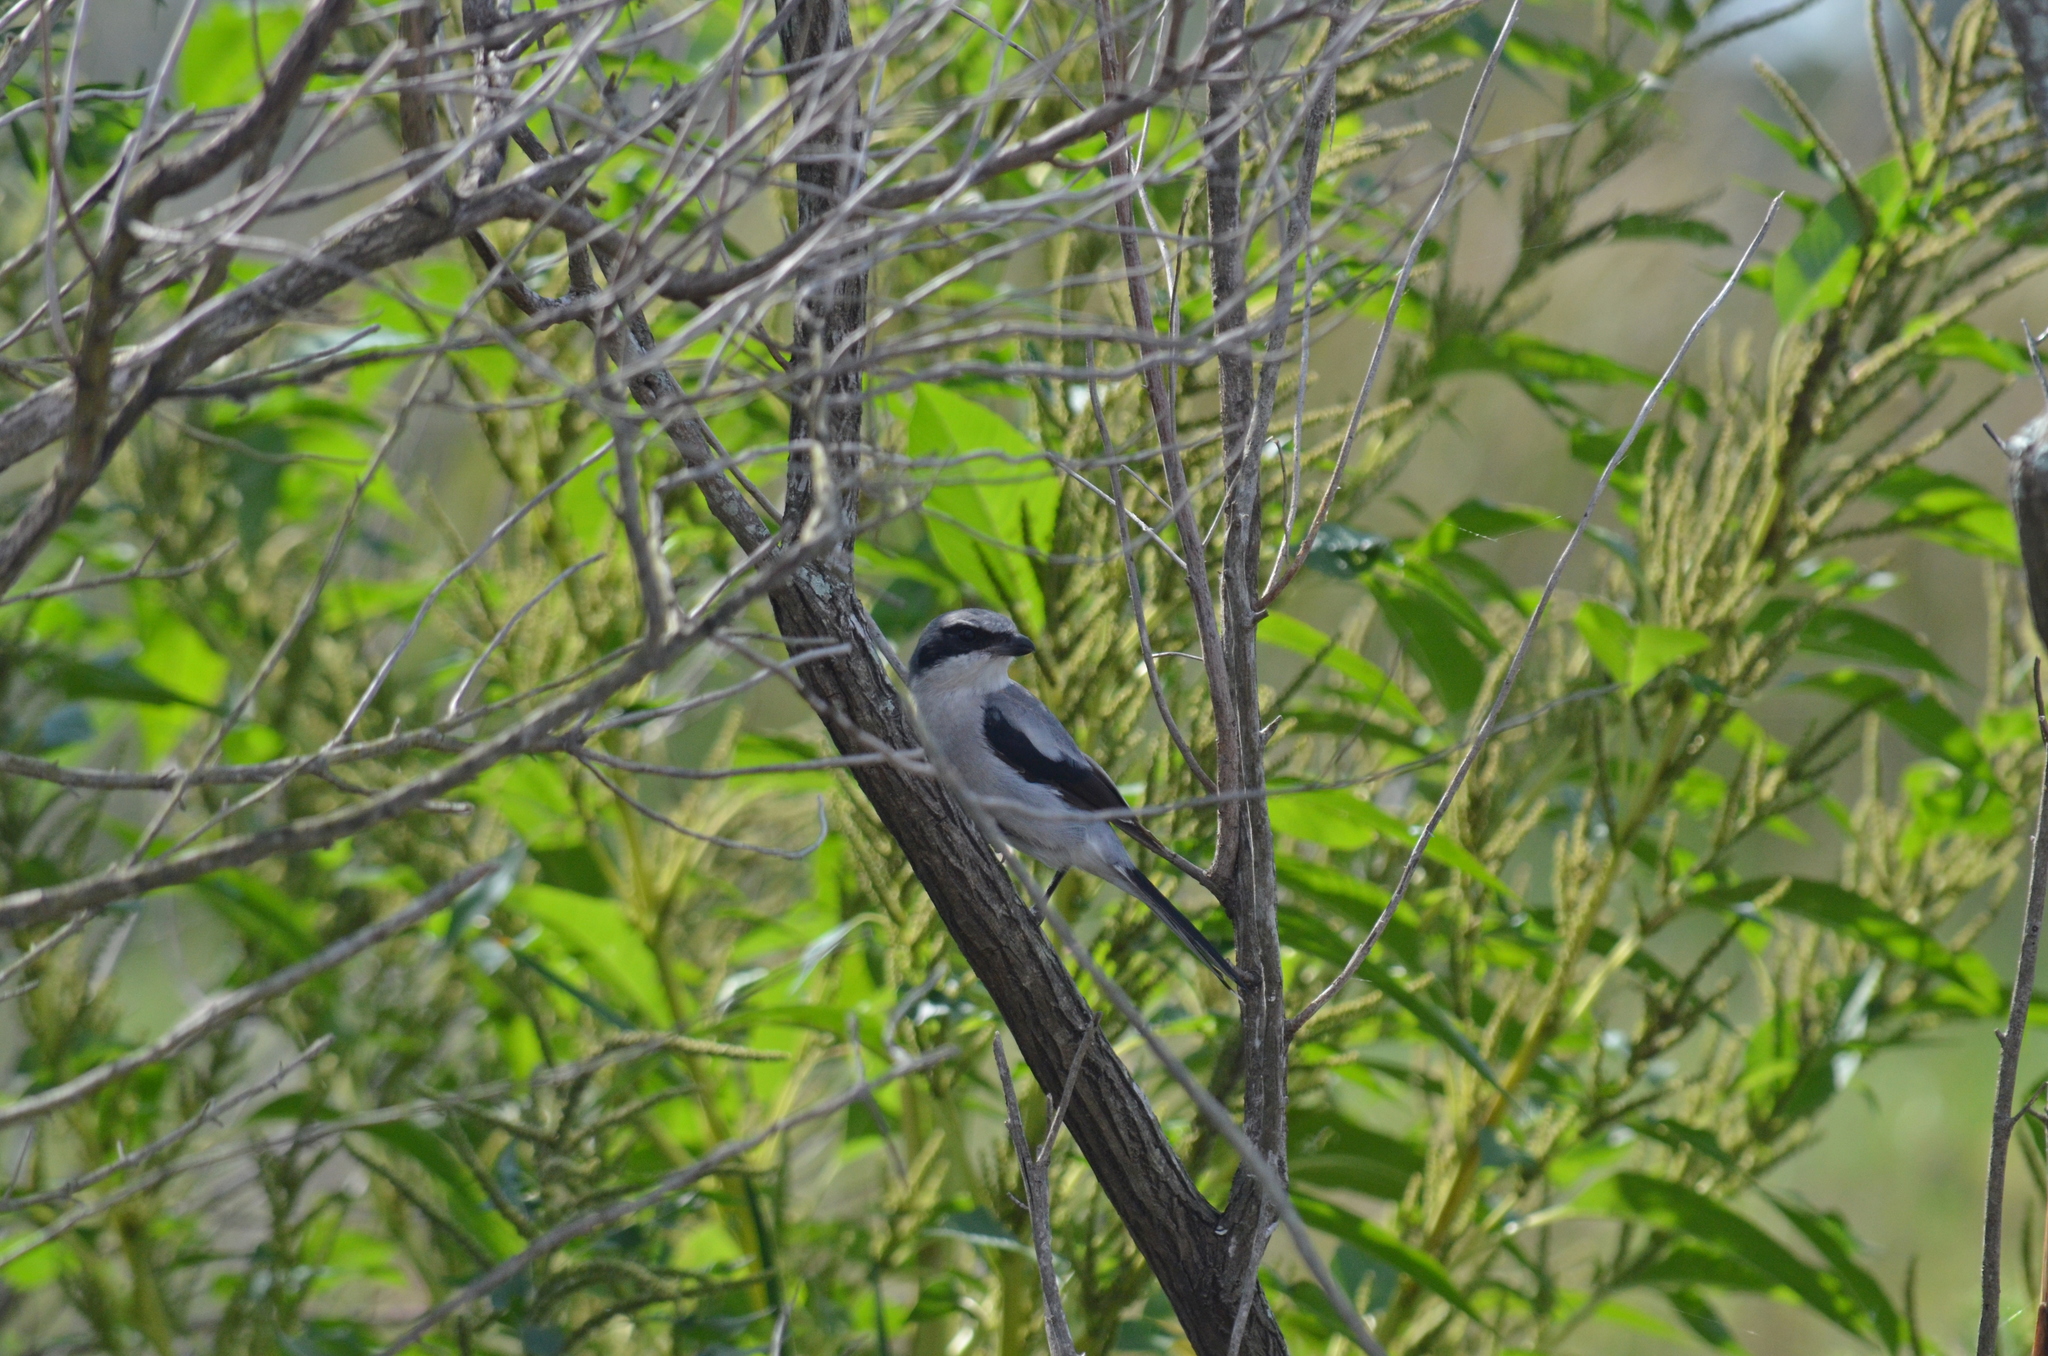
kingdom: Animalia
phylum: Chordata
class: Aves
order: Passeriformes
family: Laniidae
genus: Lanius
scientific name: Lanius ludovicianus
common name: Loggerhead shrike
